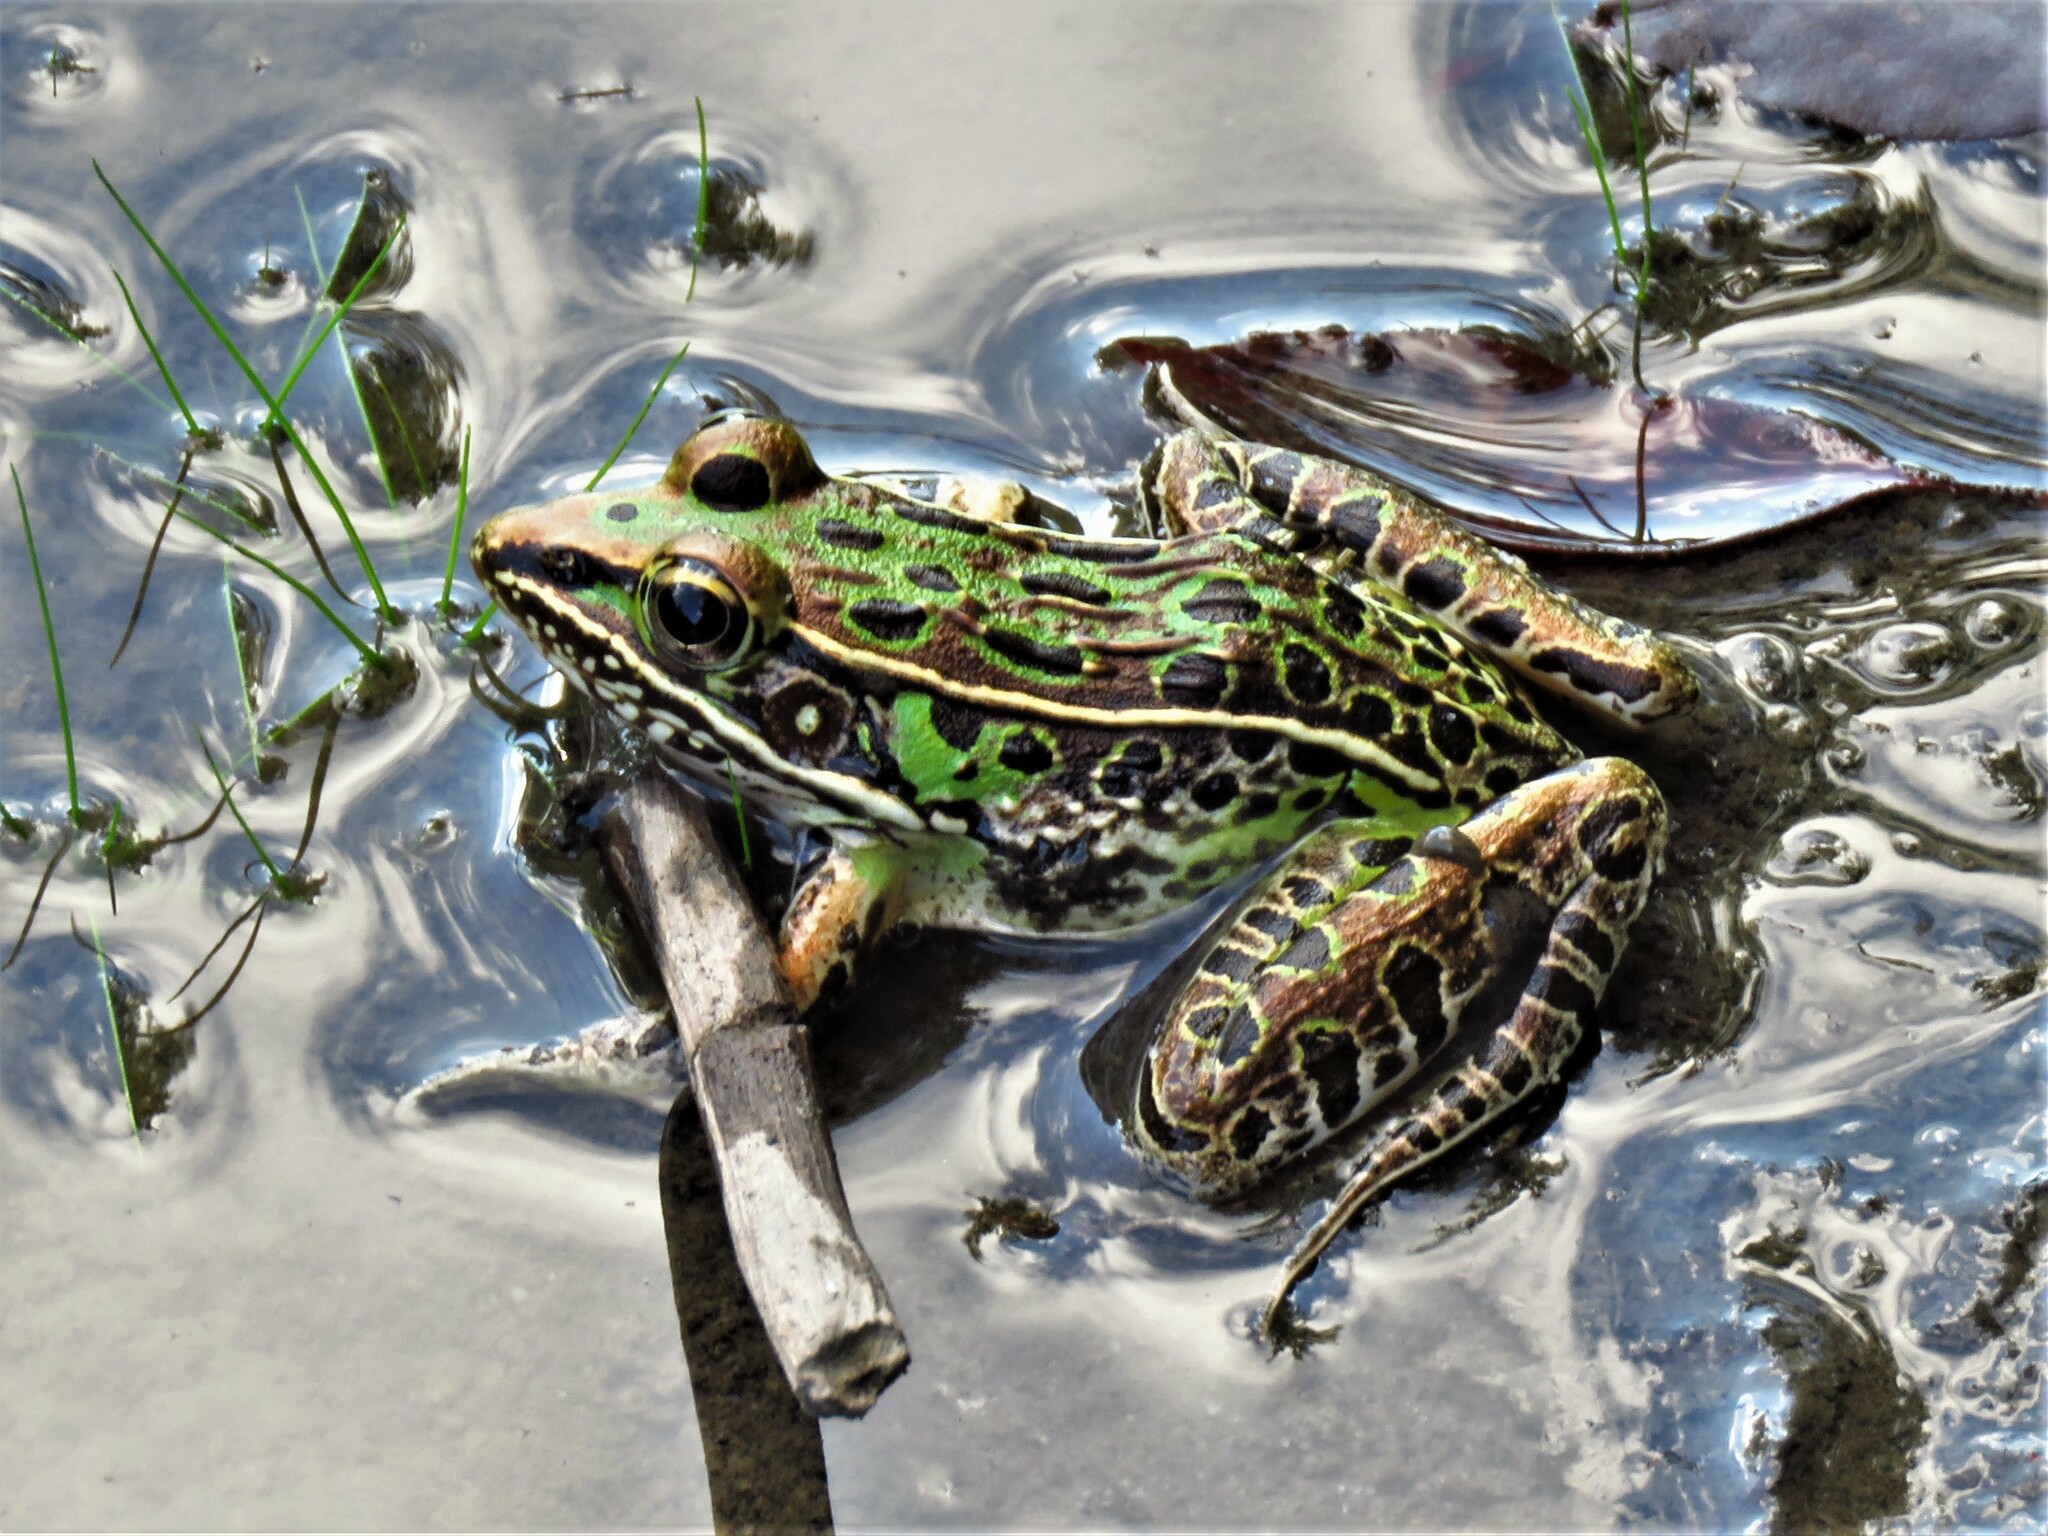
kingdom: Animalia
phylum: Chordata
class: Amphibia
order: Anura
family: Ranidae
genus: Lithobates
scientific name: Lithobates sphenocephalus
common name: Southern leopard frog
